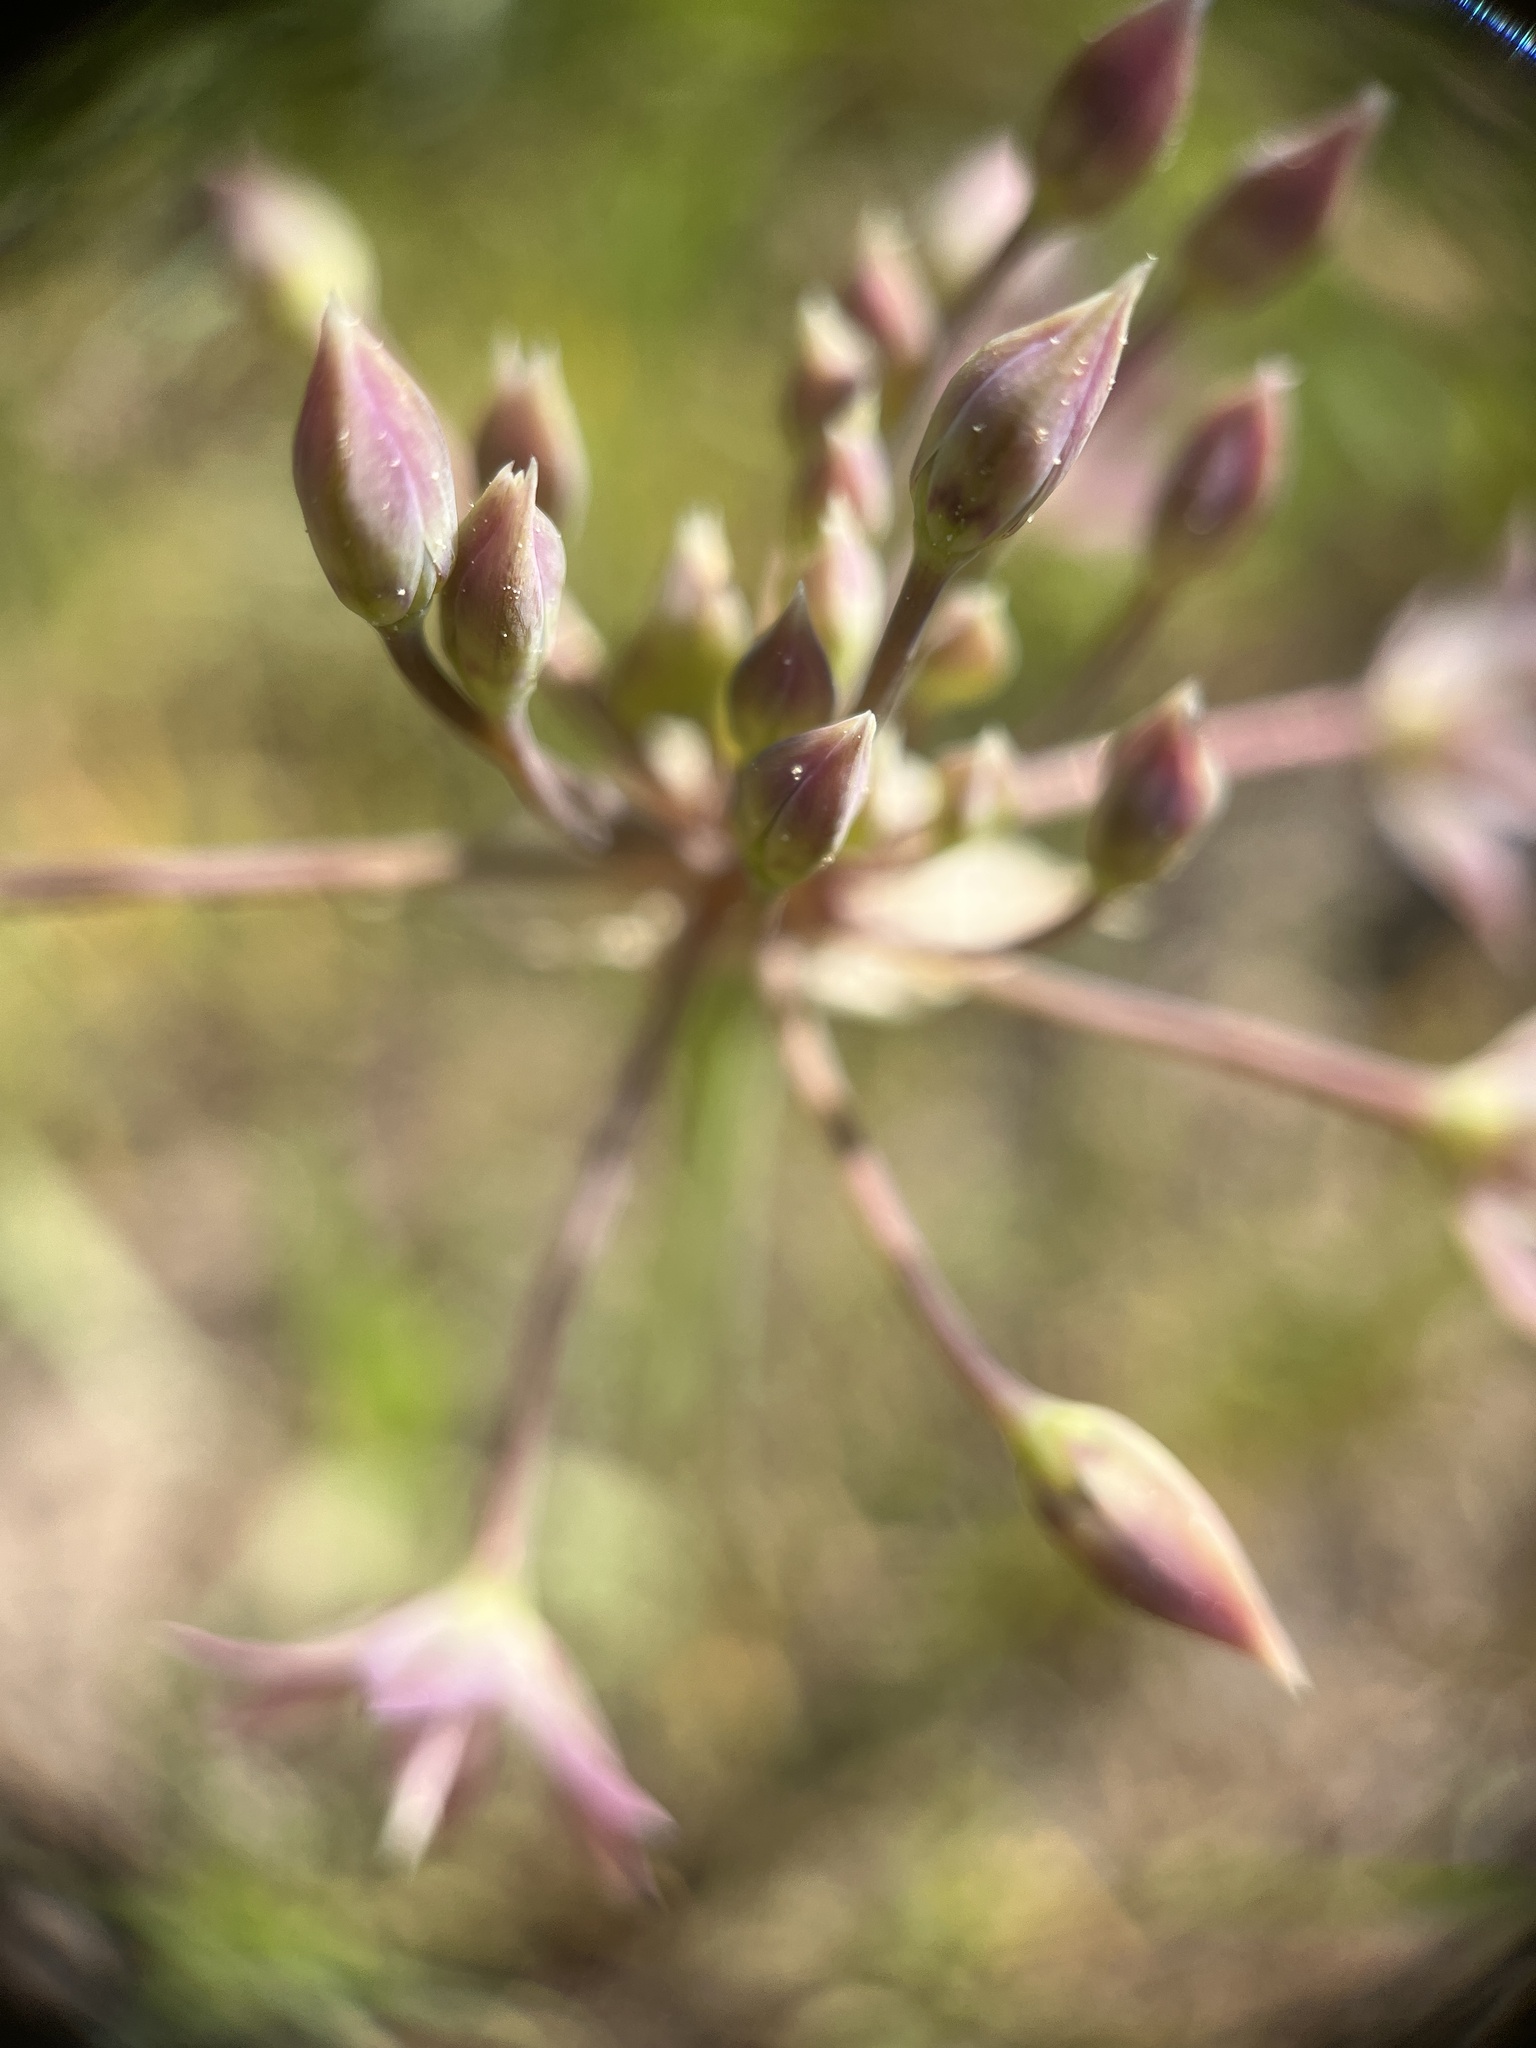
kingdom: Plantae
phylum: Tracheophyta
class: Liliopsida
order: Asparagales
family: Amaryllidaceae
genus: Allium
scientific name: Allium campanulatum
